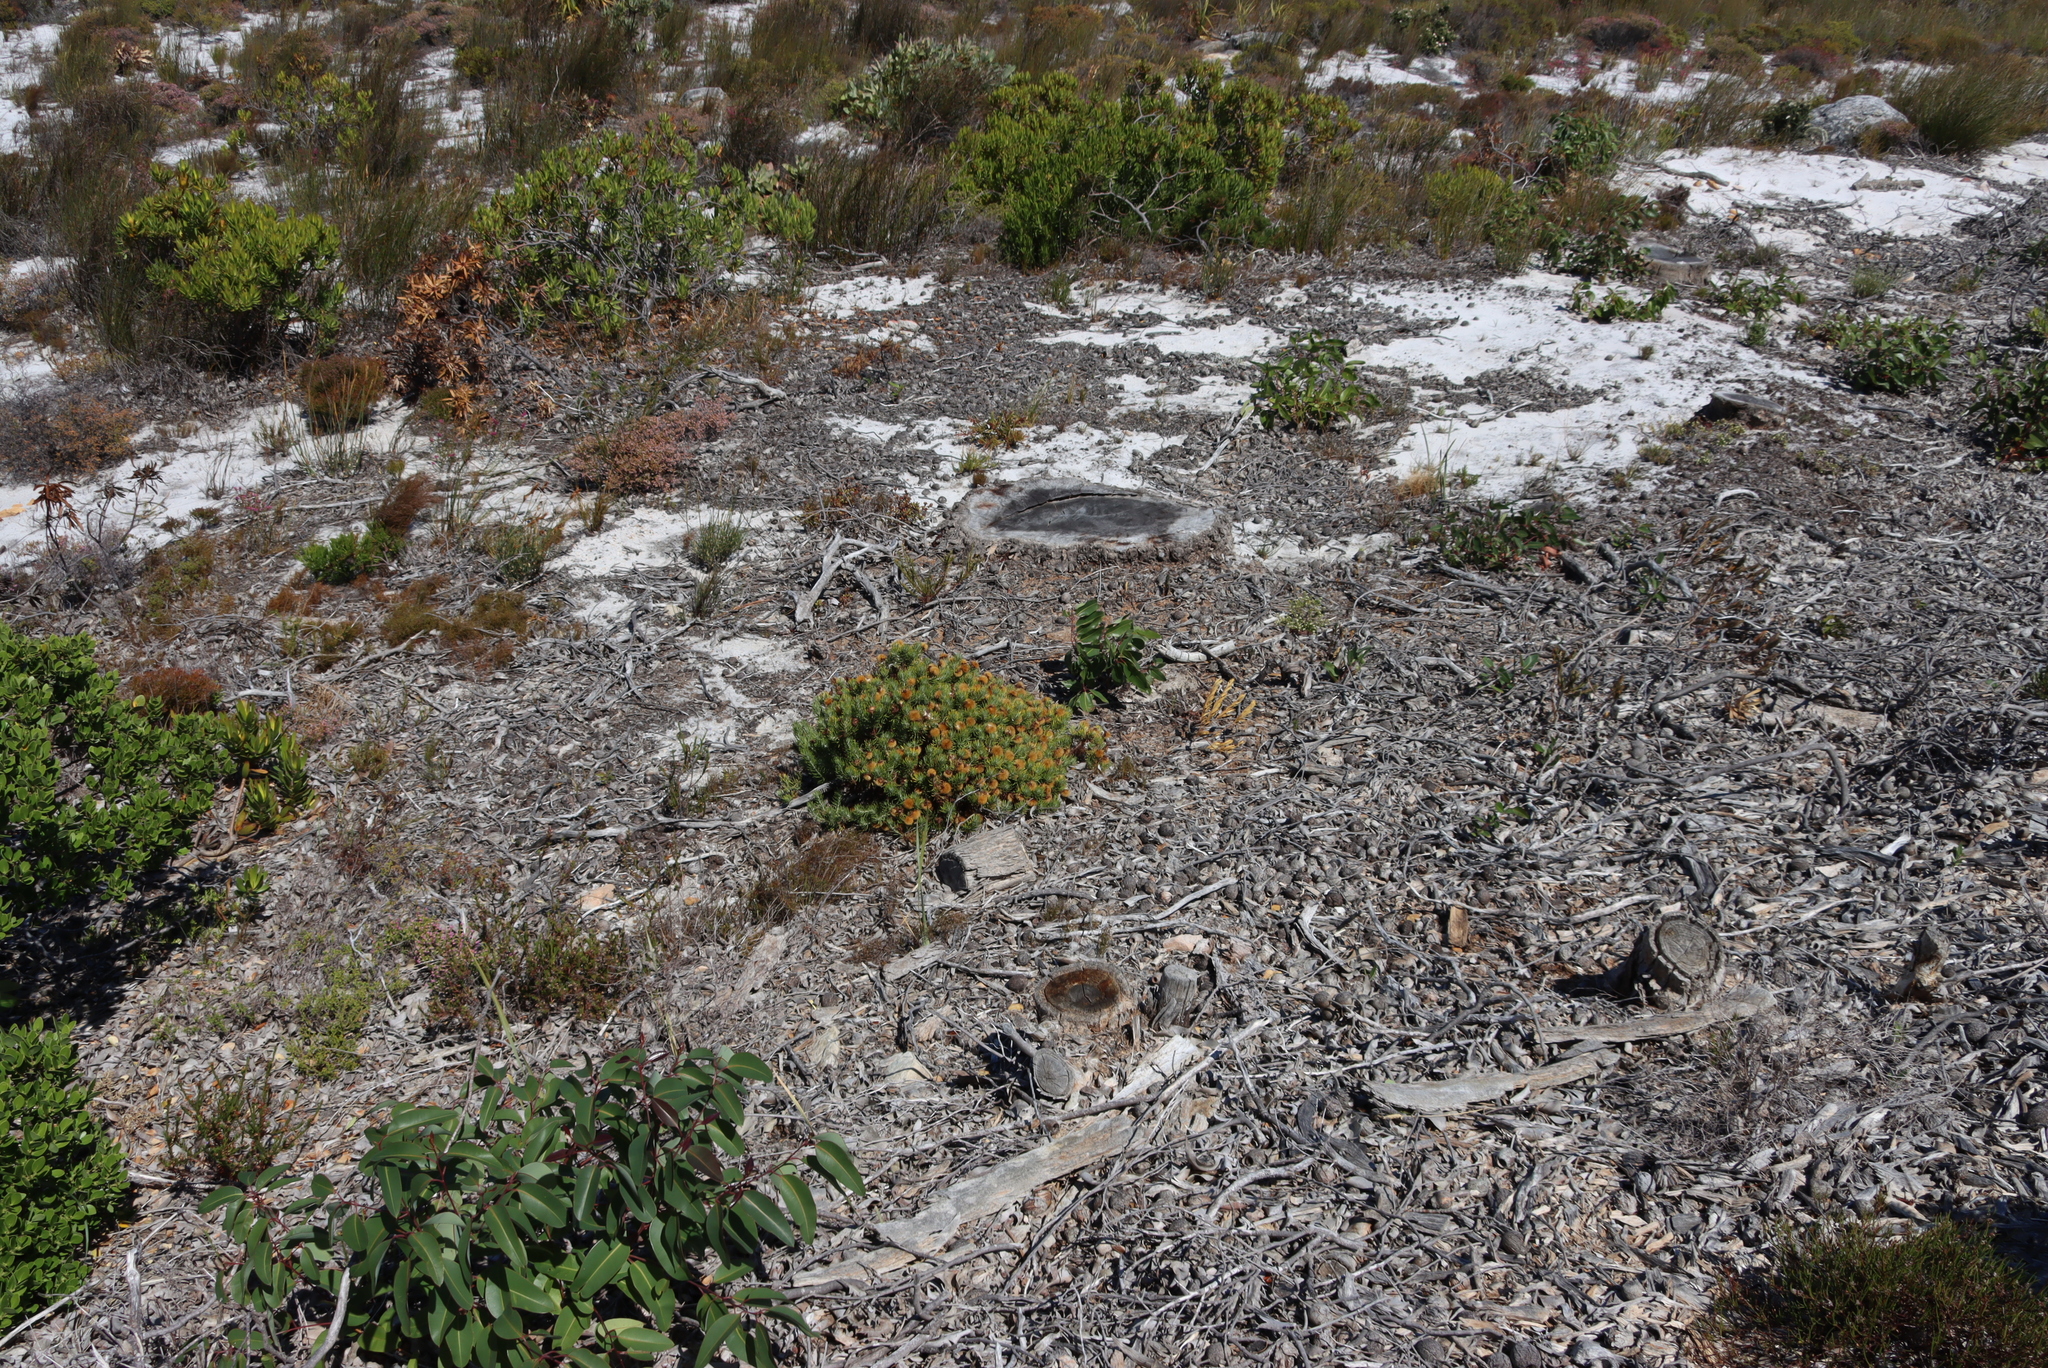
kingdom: Plantae
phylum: Tracheophyta
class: Magnoliopsida
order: Asterales
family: Asteraceae
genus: Heterolepis
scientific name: Heterolepis aliena
